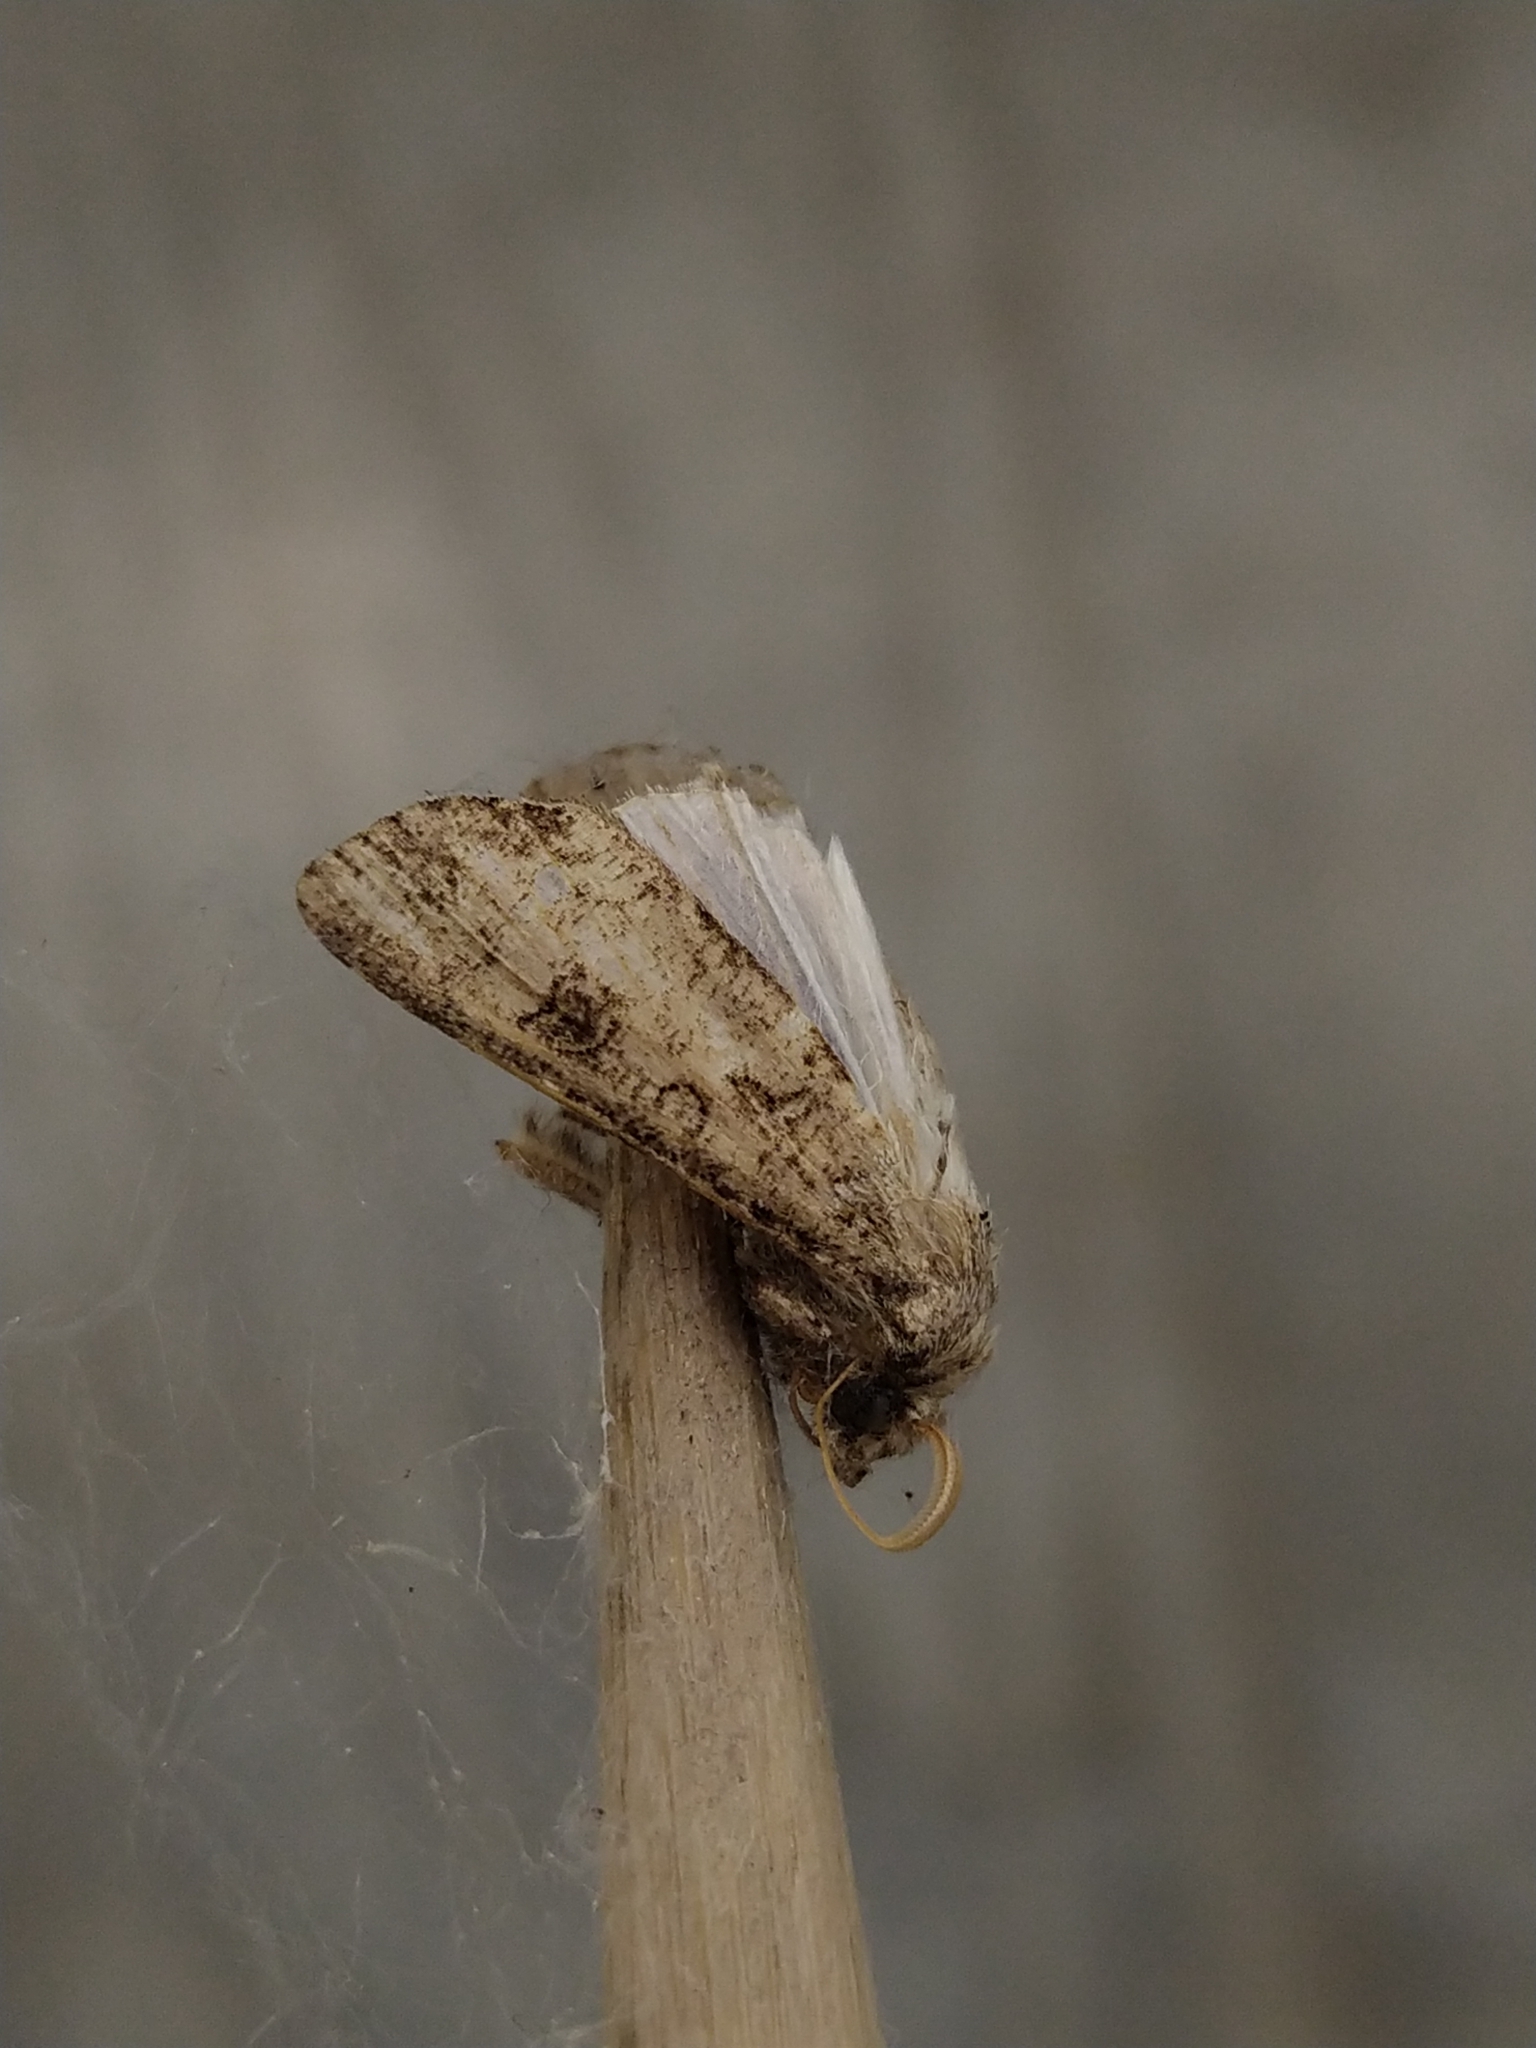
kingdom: Animalia
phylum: Arthropoda
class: Insecta
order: Lepidoptera
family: Noctuidae
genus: Agrotis
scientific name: Agrotis segetum
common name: Turnip moth
